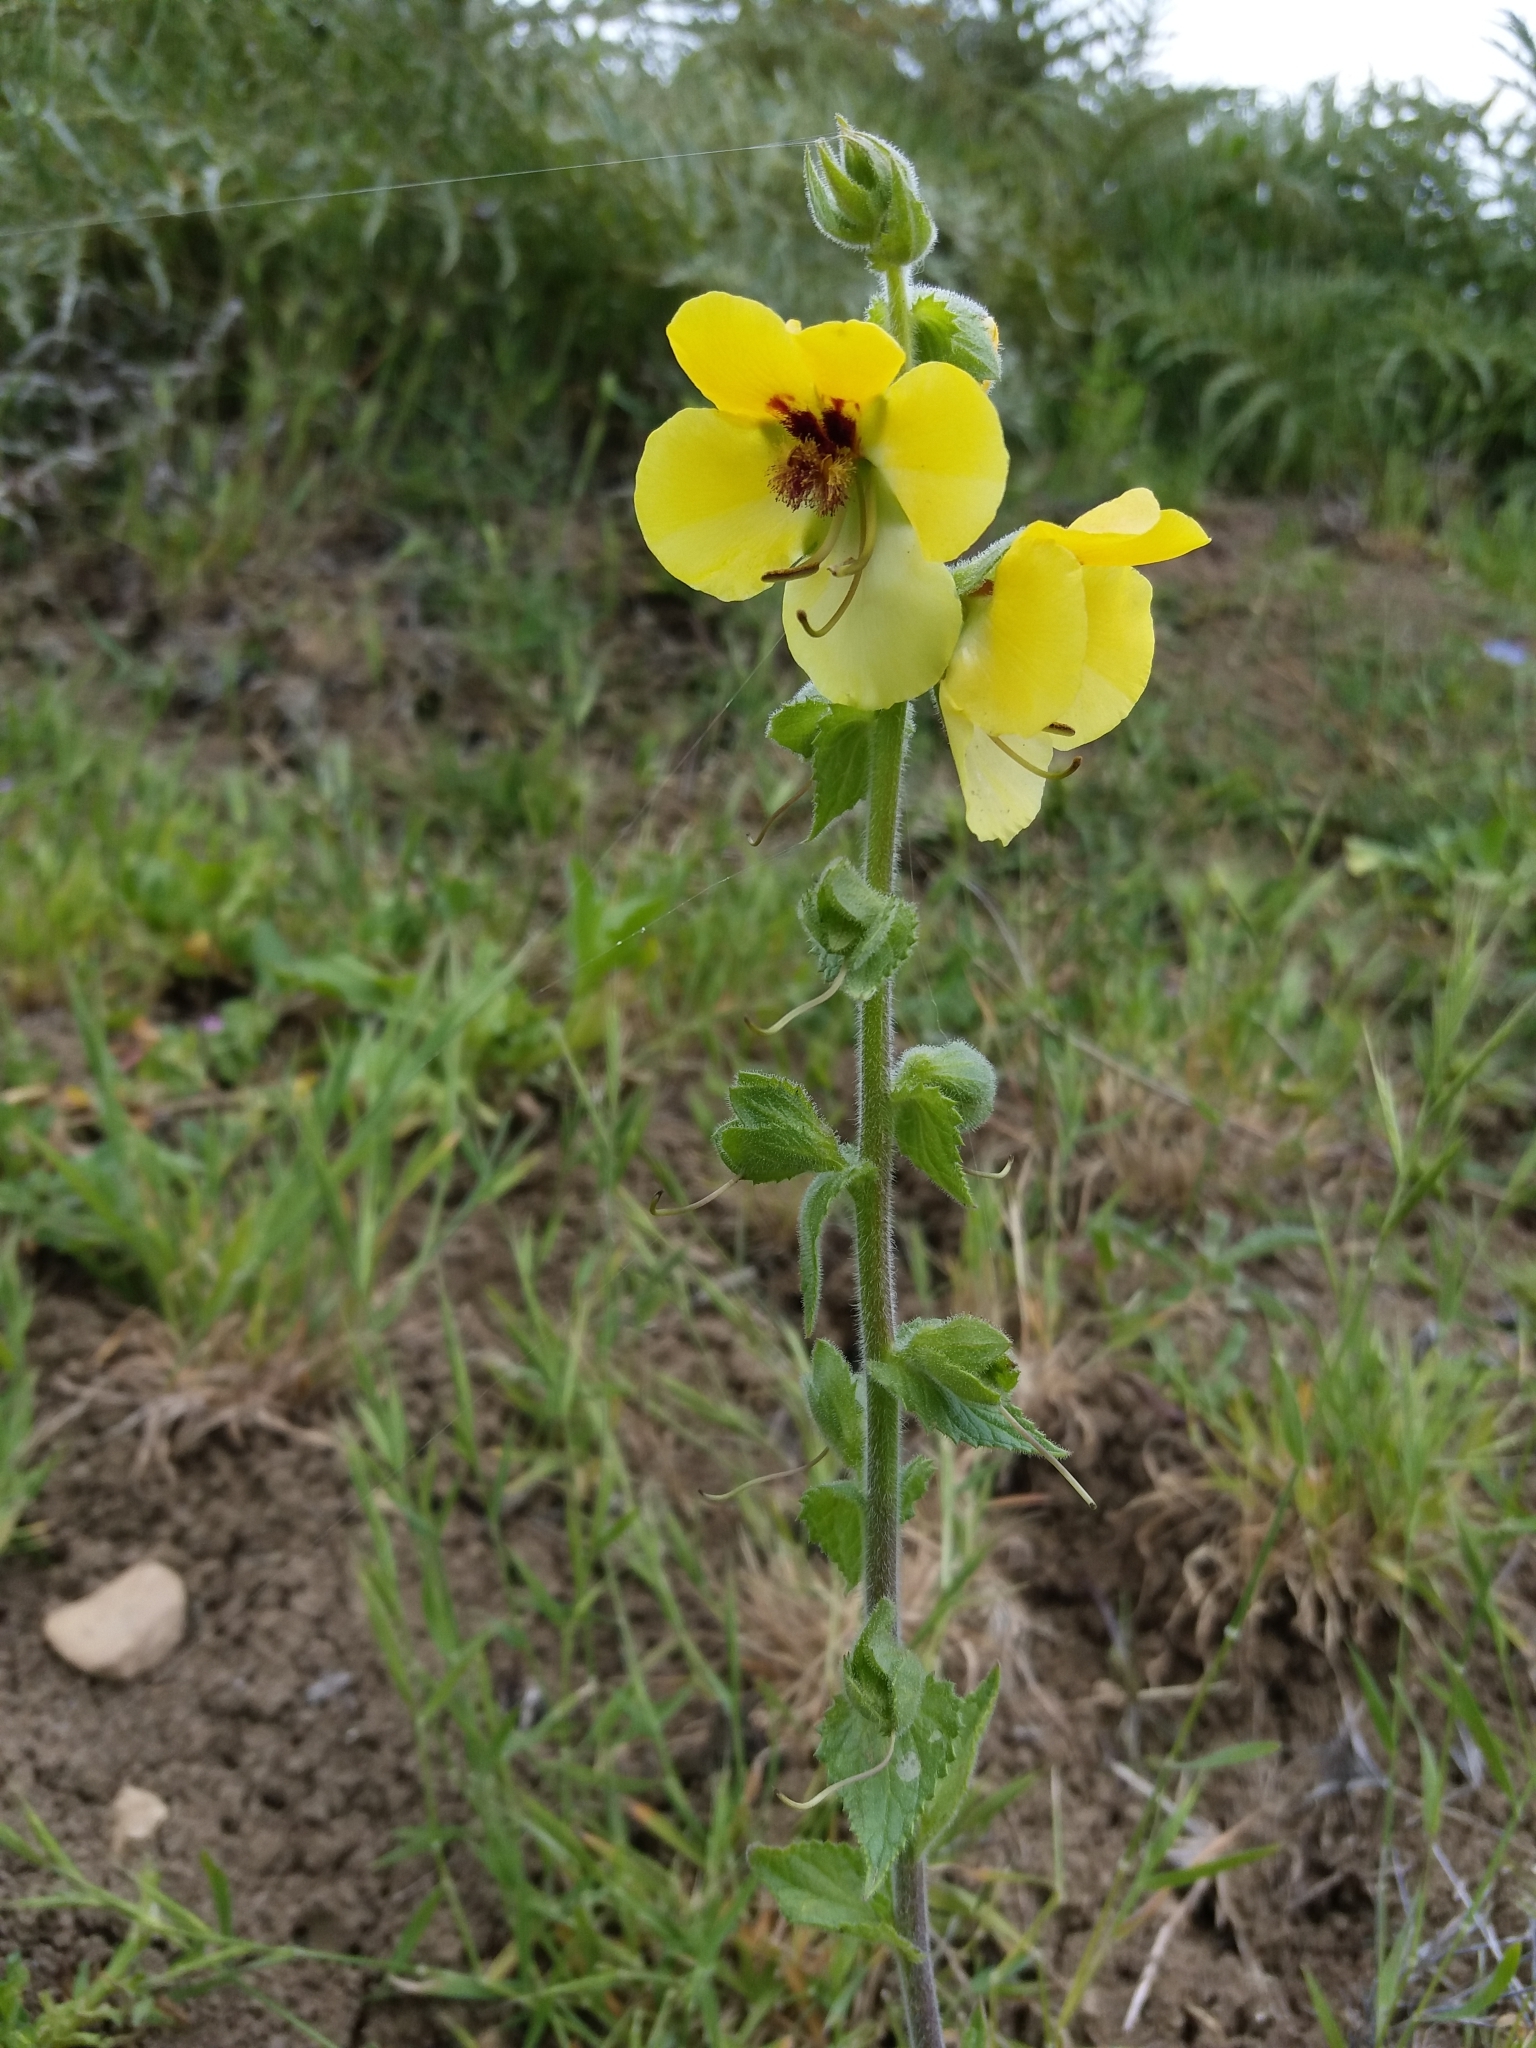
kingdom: Plantae
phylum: Tracheophyta
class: Magnoliopsida
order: Lamiales
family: Scrophulariaceae
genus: Verbascum
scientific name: Verbascum creticum
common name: Cretan mullein
